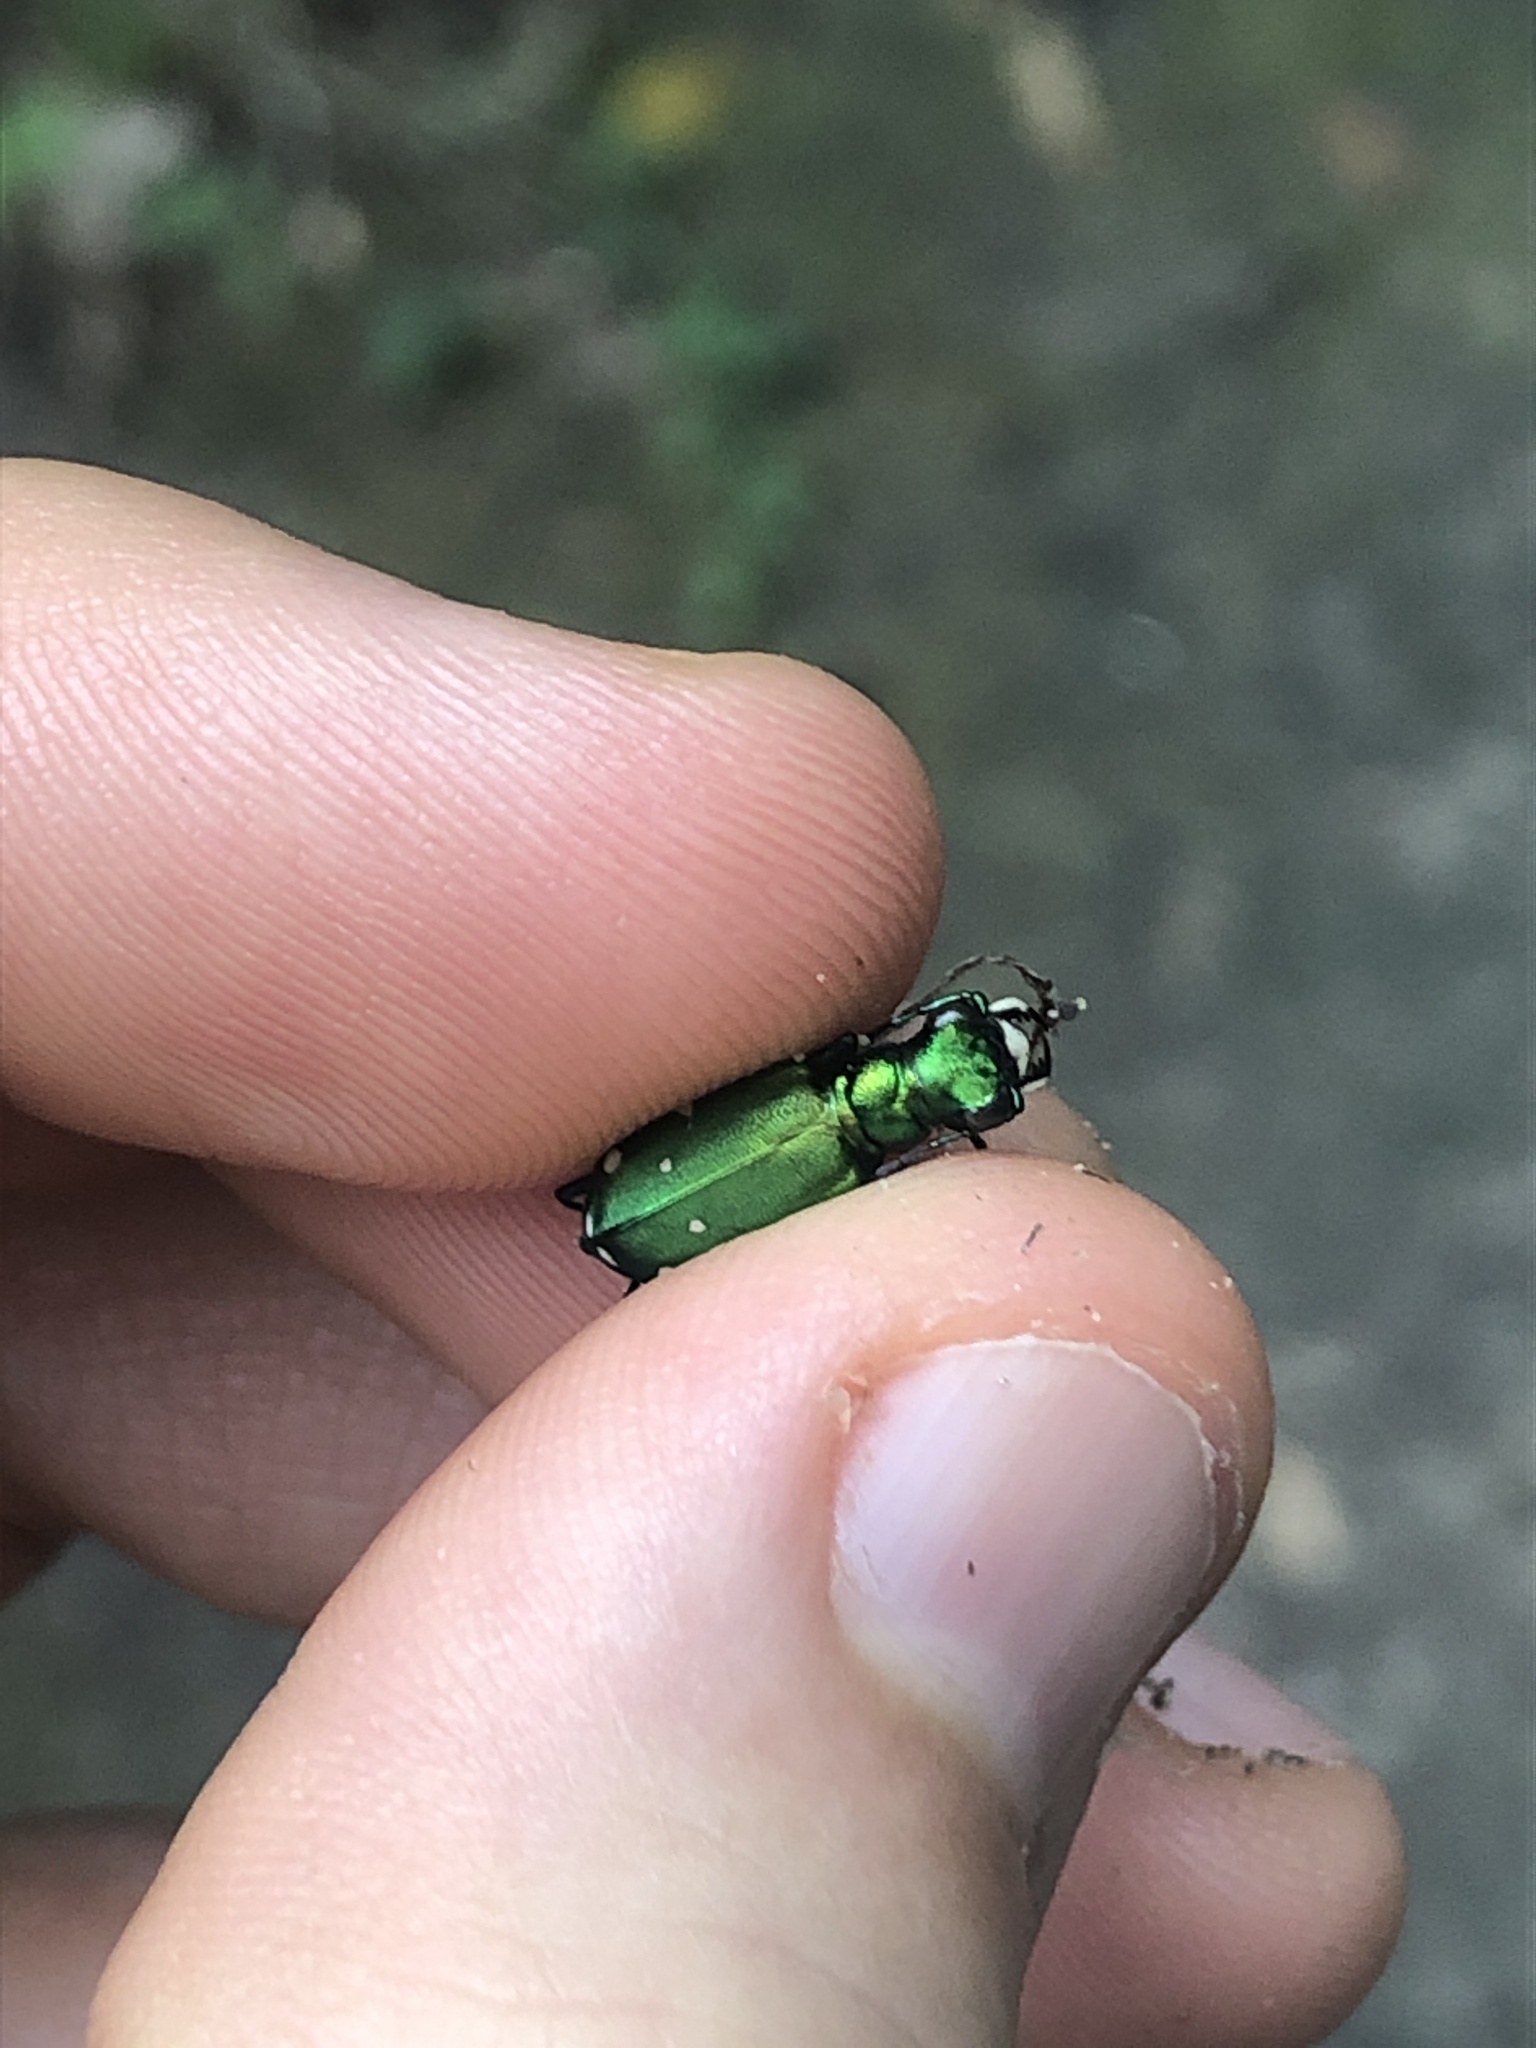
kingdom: Animalia
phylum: Arthropoda
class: Insecta
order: Coleoptera
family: Carabidae
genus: Cicindela
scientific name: Cicindela sexguttata
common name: Six-spotted tiger beetle
